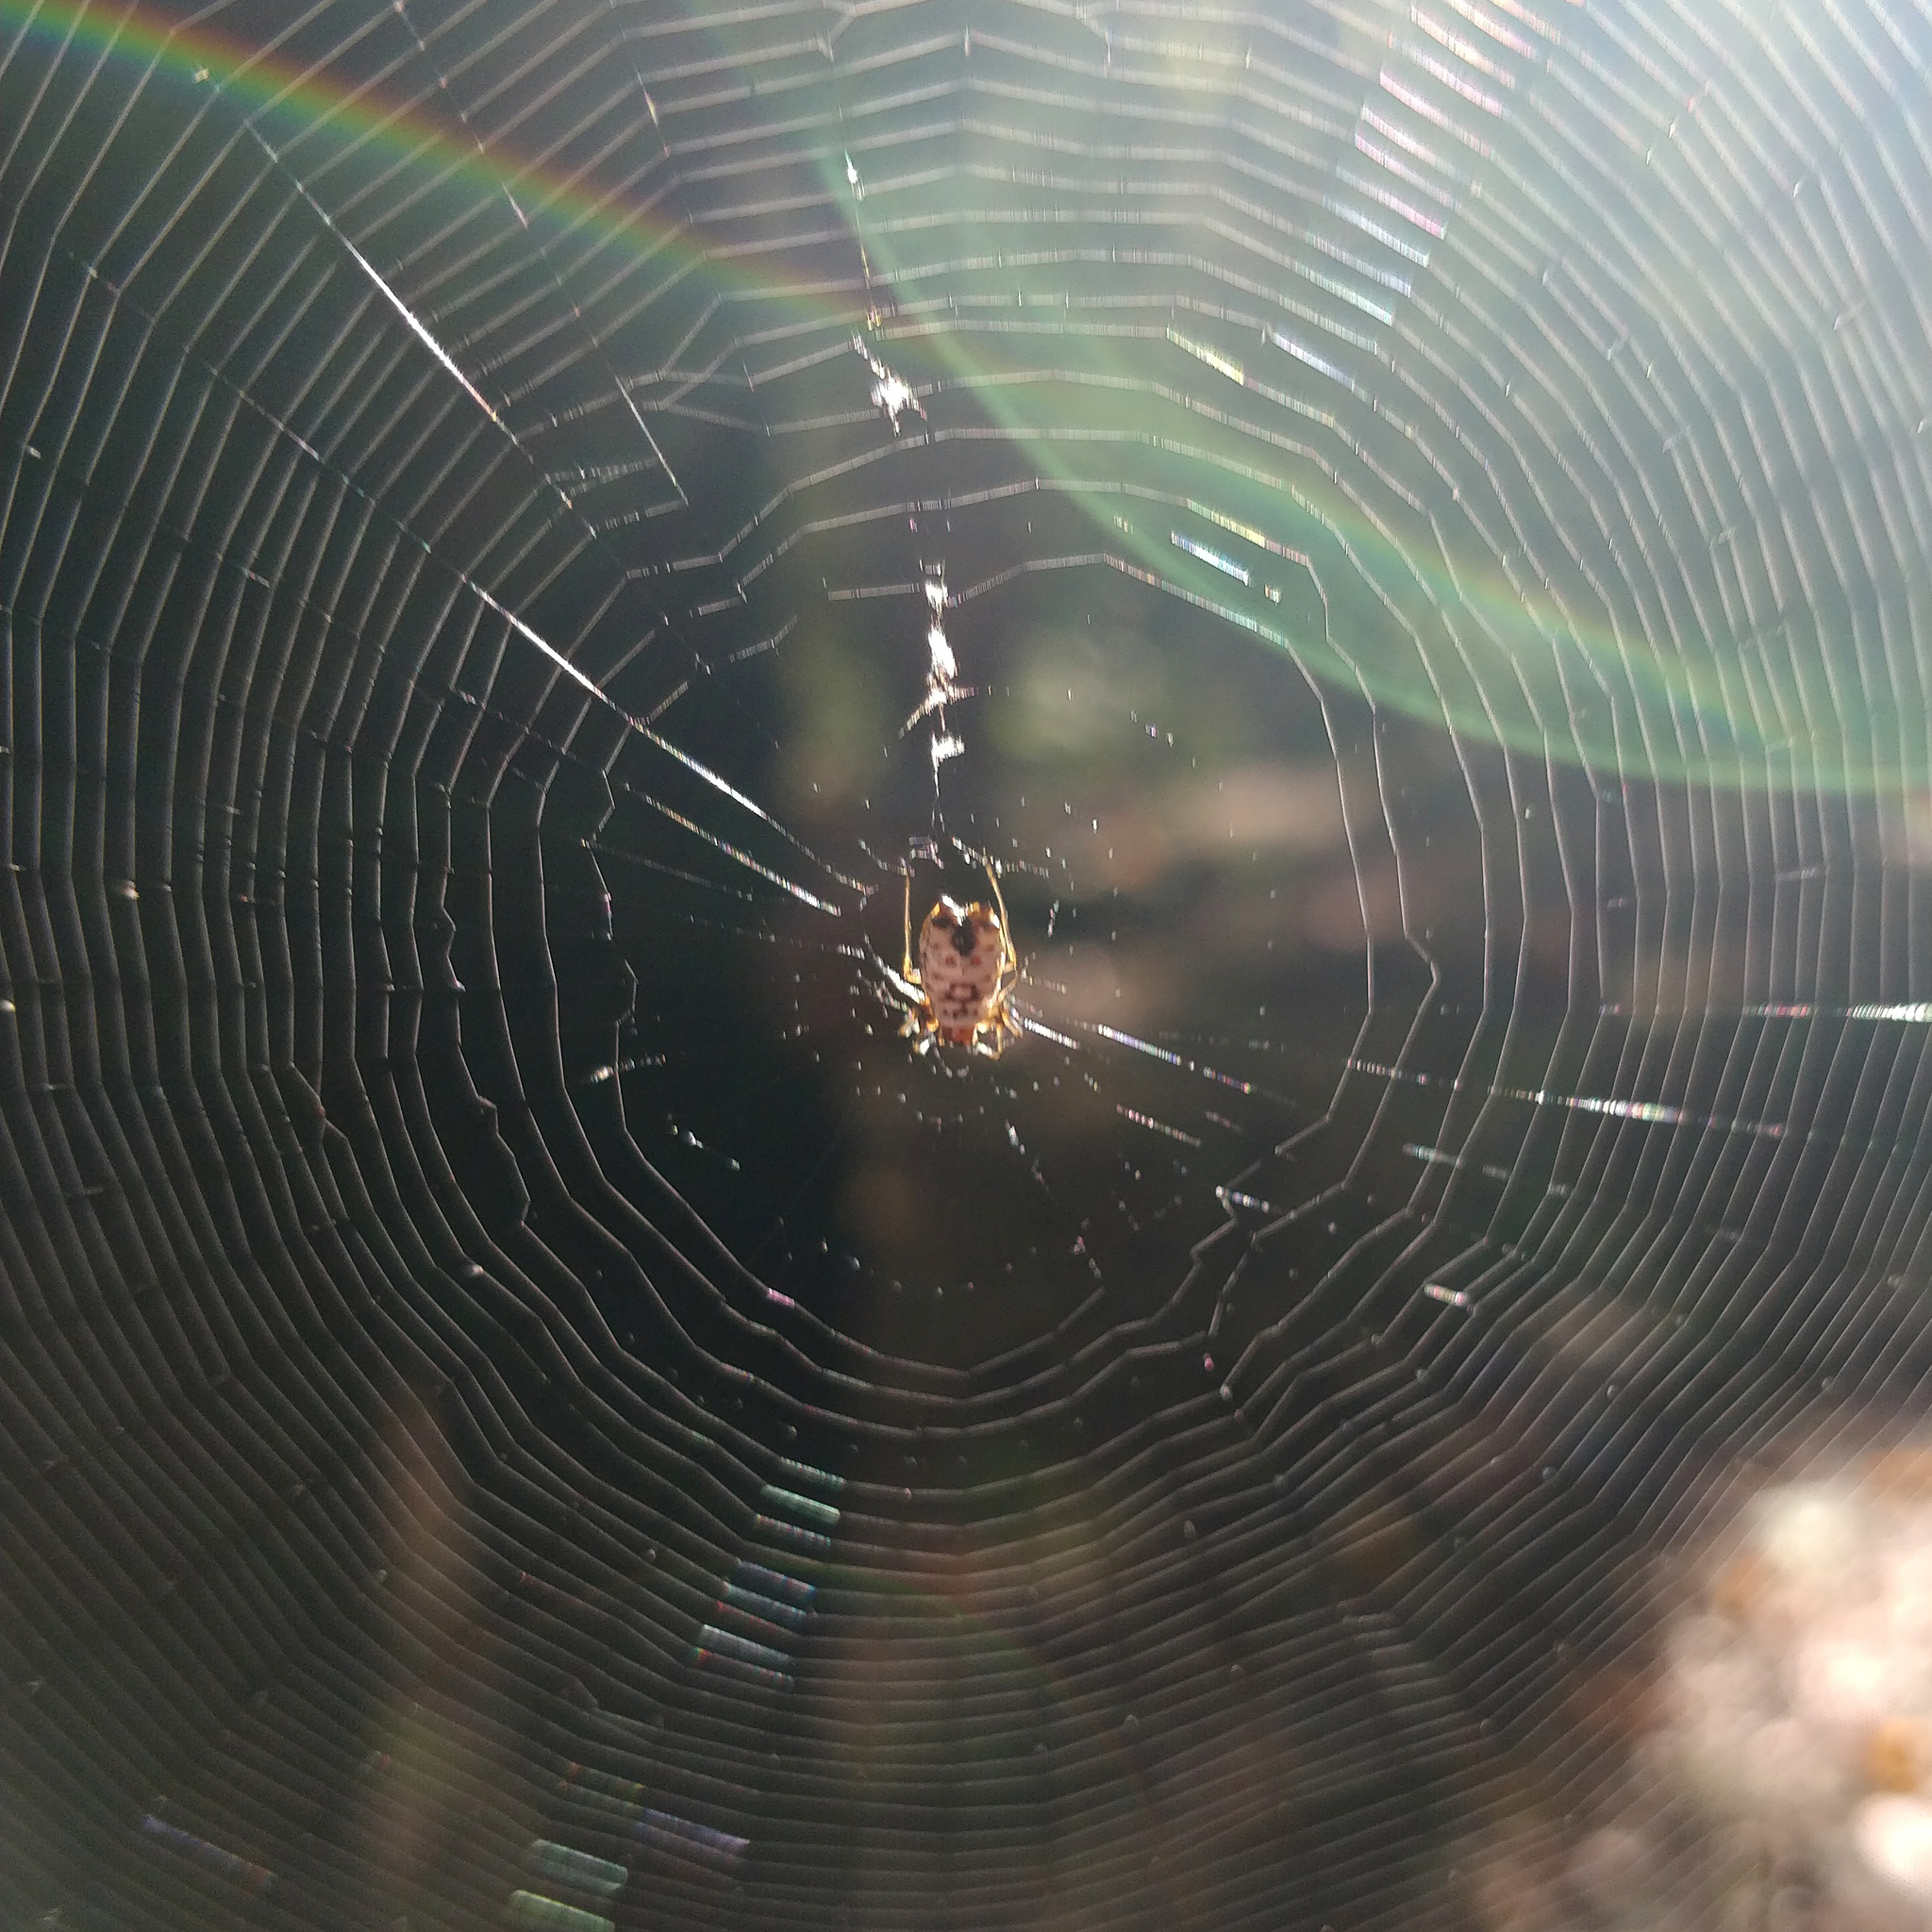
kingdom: Animalia
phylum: Arthropoda
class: Arachnida
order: Araneae
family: Araneidae
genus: Micrathena
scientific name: Micrathena mitrata
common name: Orb weavers
